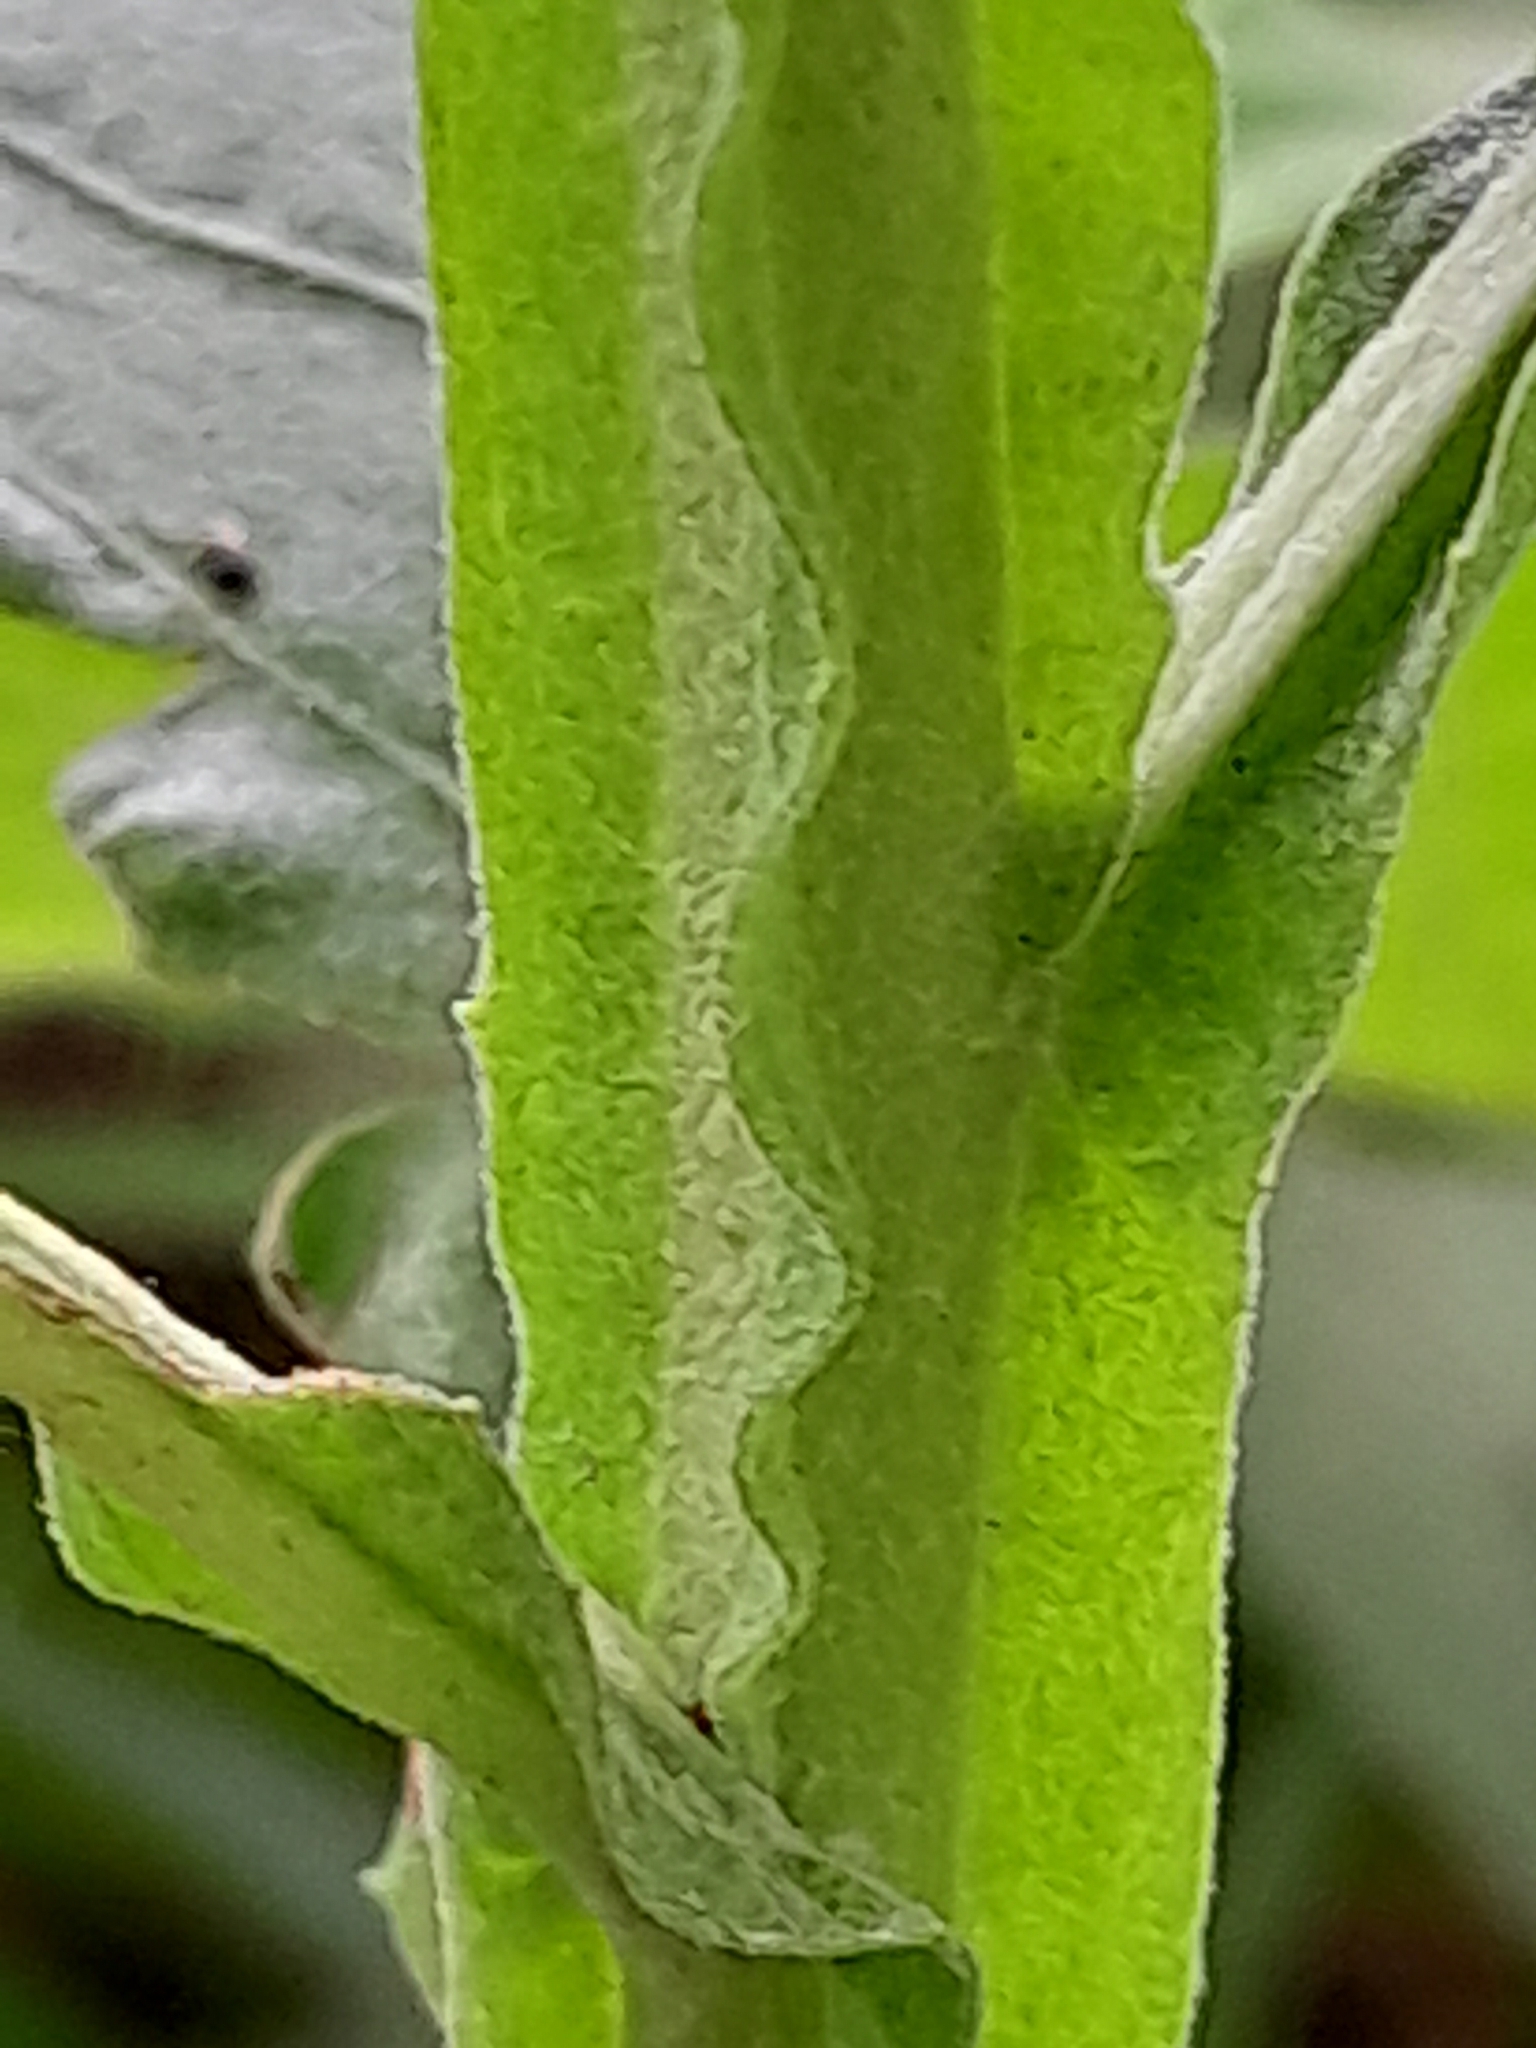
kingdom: Plantae
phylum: Tracheophyta
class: Magnoliopsida
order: Asterales
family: Asteraceae
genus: Pluchea
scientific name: Pluchea sagittalis
